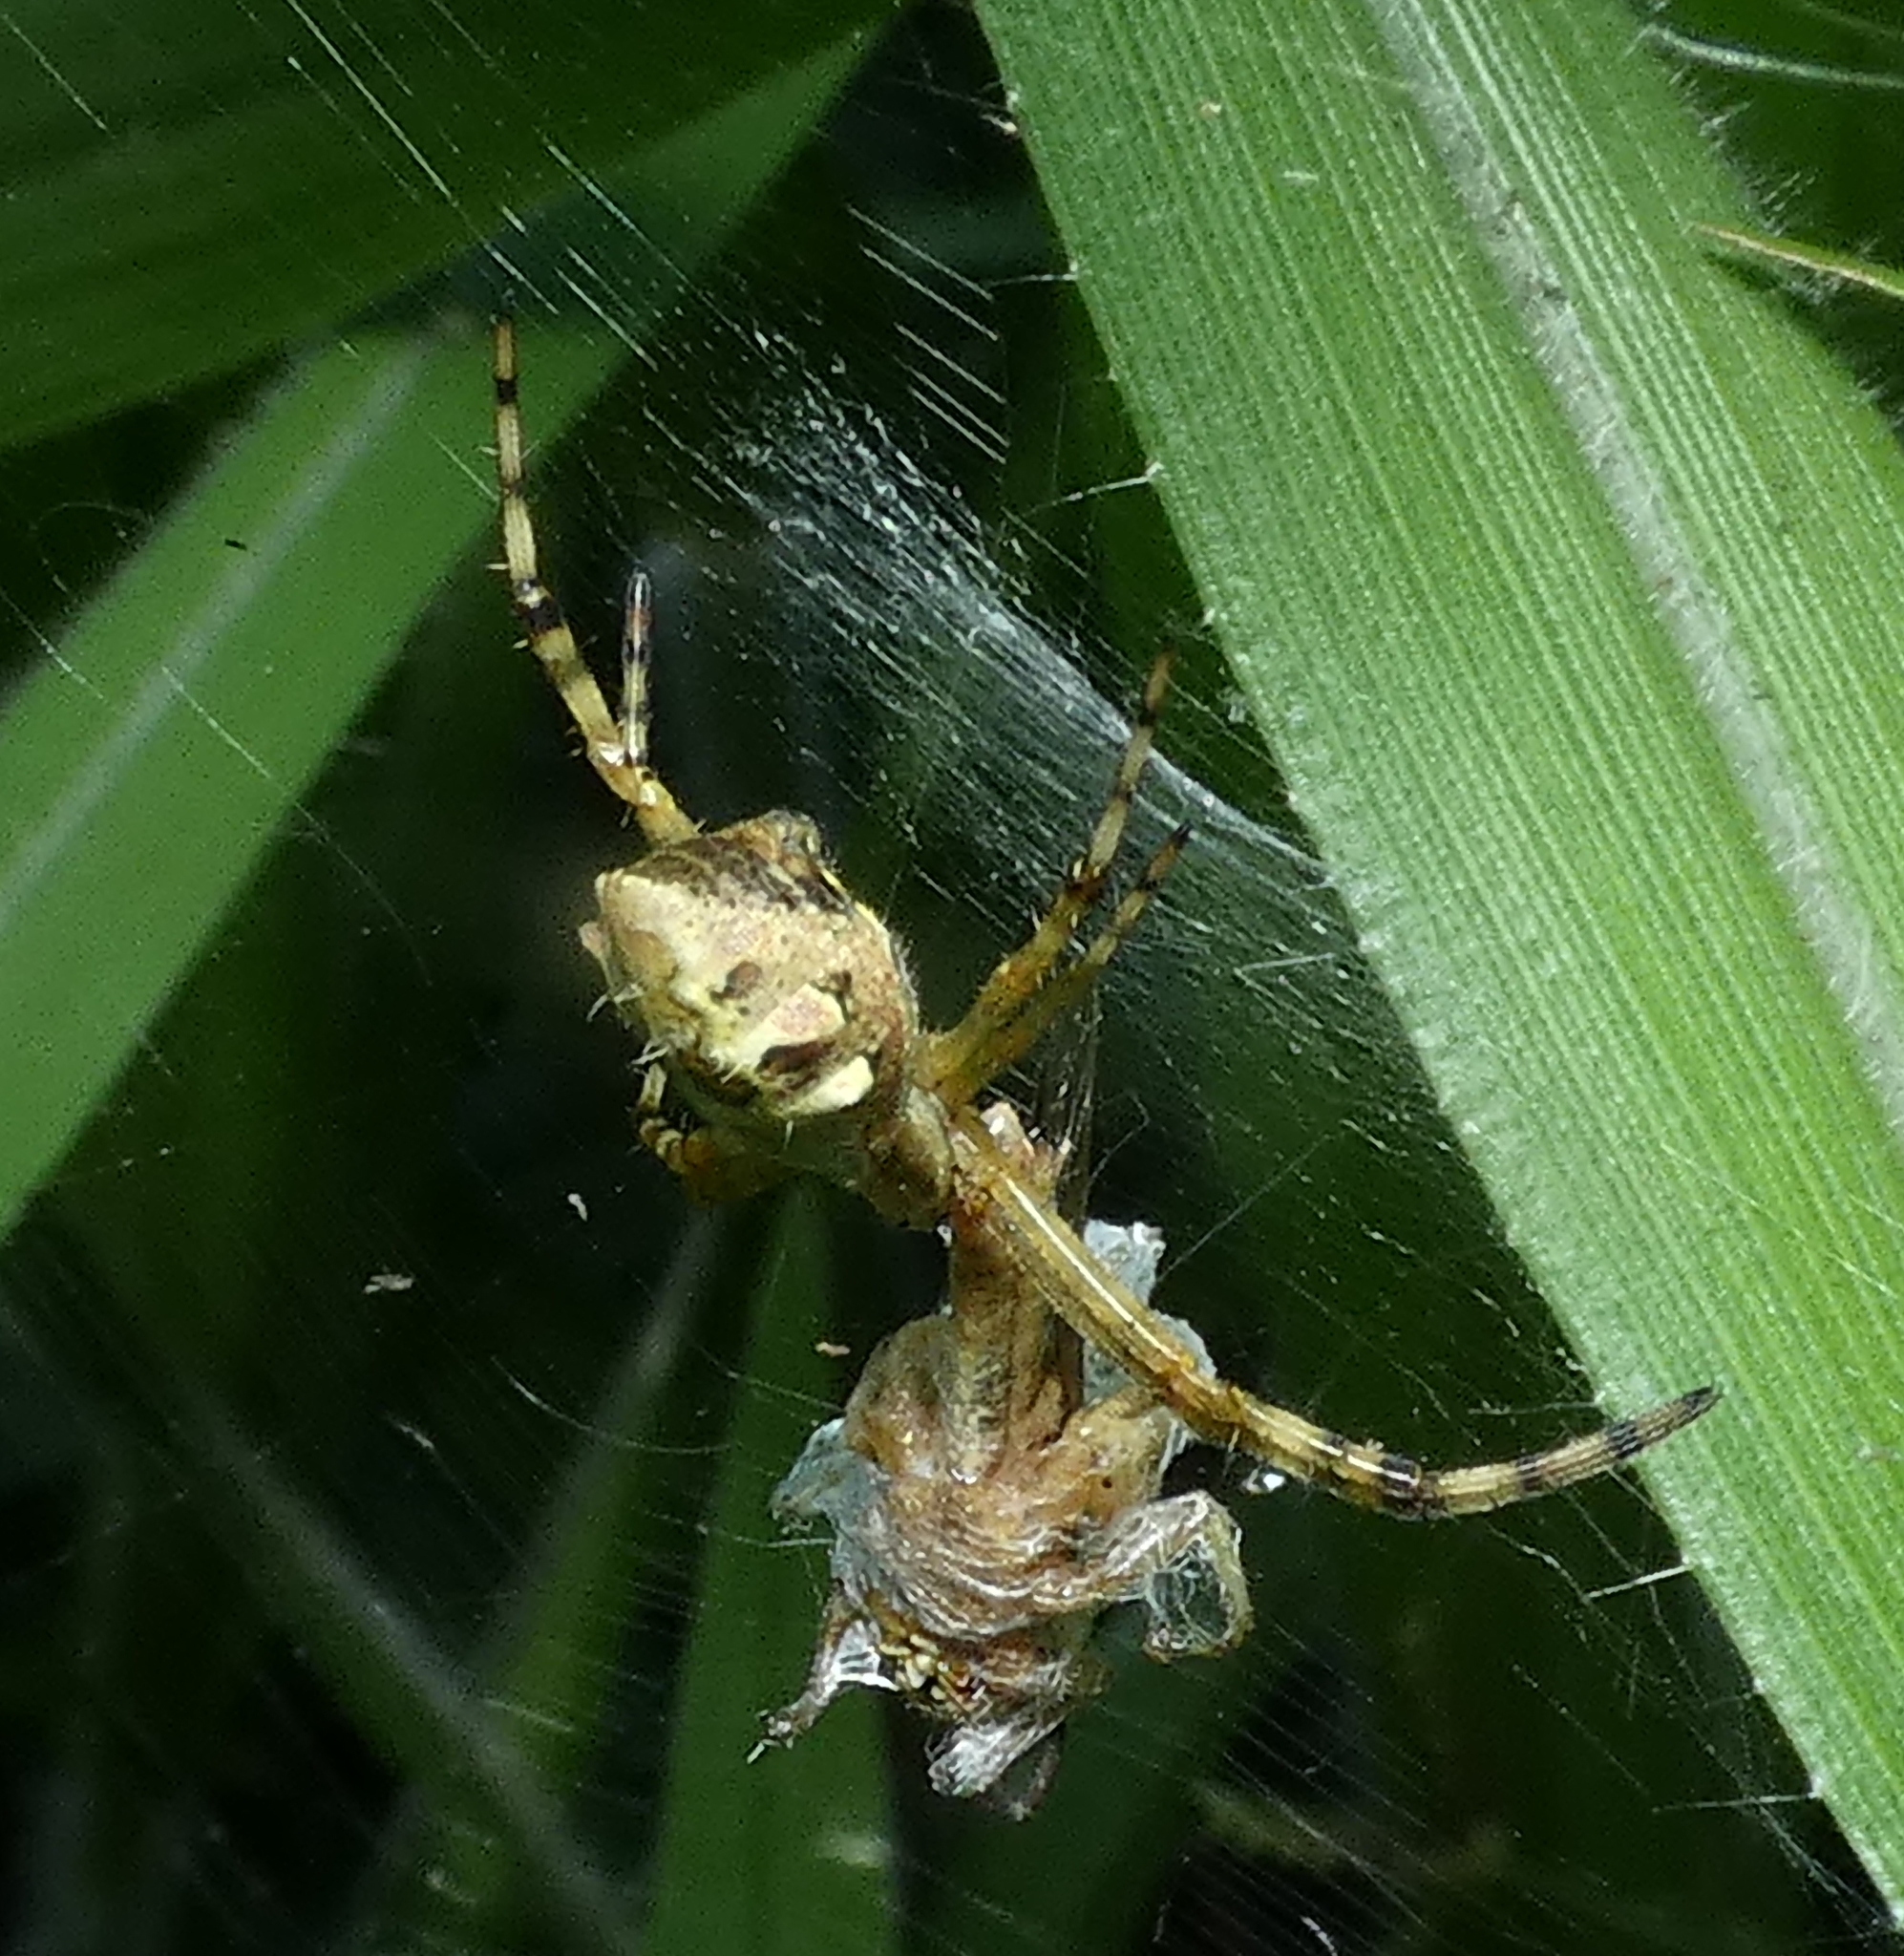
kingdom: Animalia
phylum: Arthropoda
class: Arachnida
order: Araneae
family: Araneidae
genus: Argiope
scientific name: Argiope argentata
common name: Orb weavers
